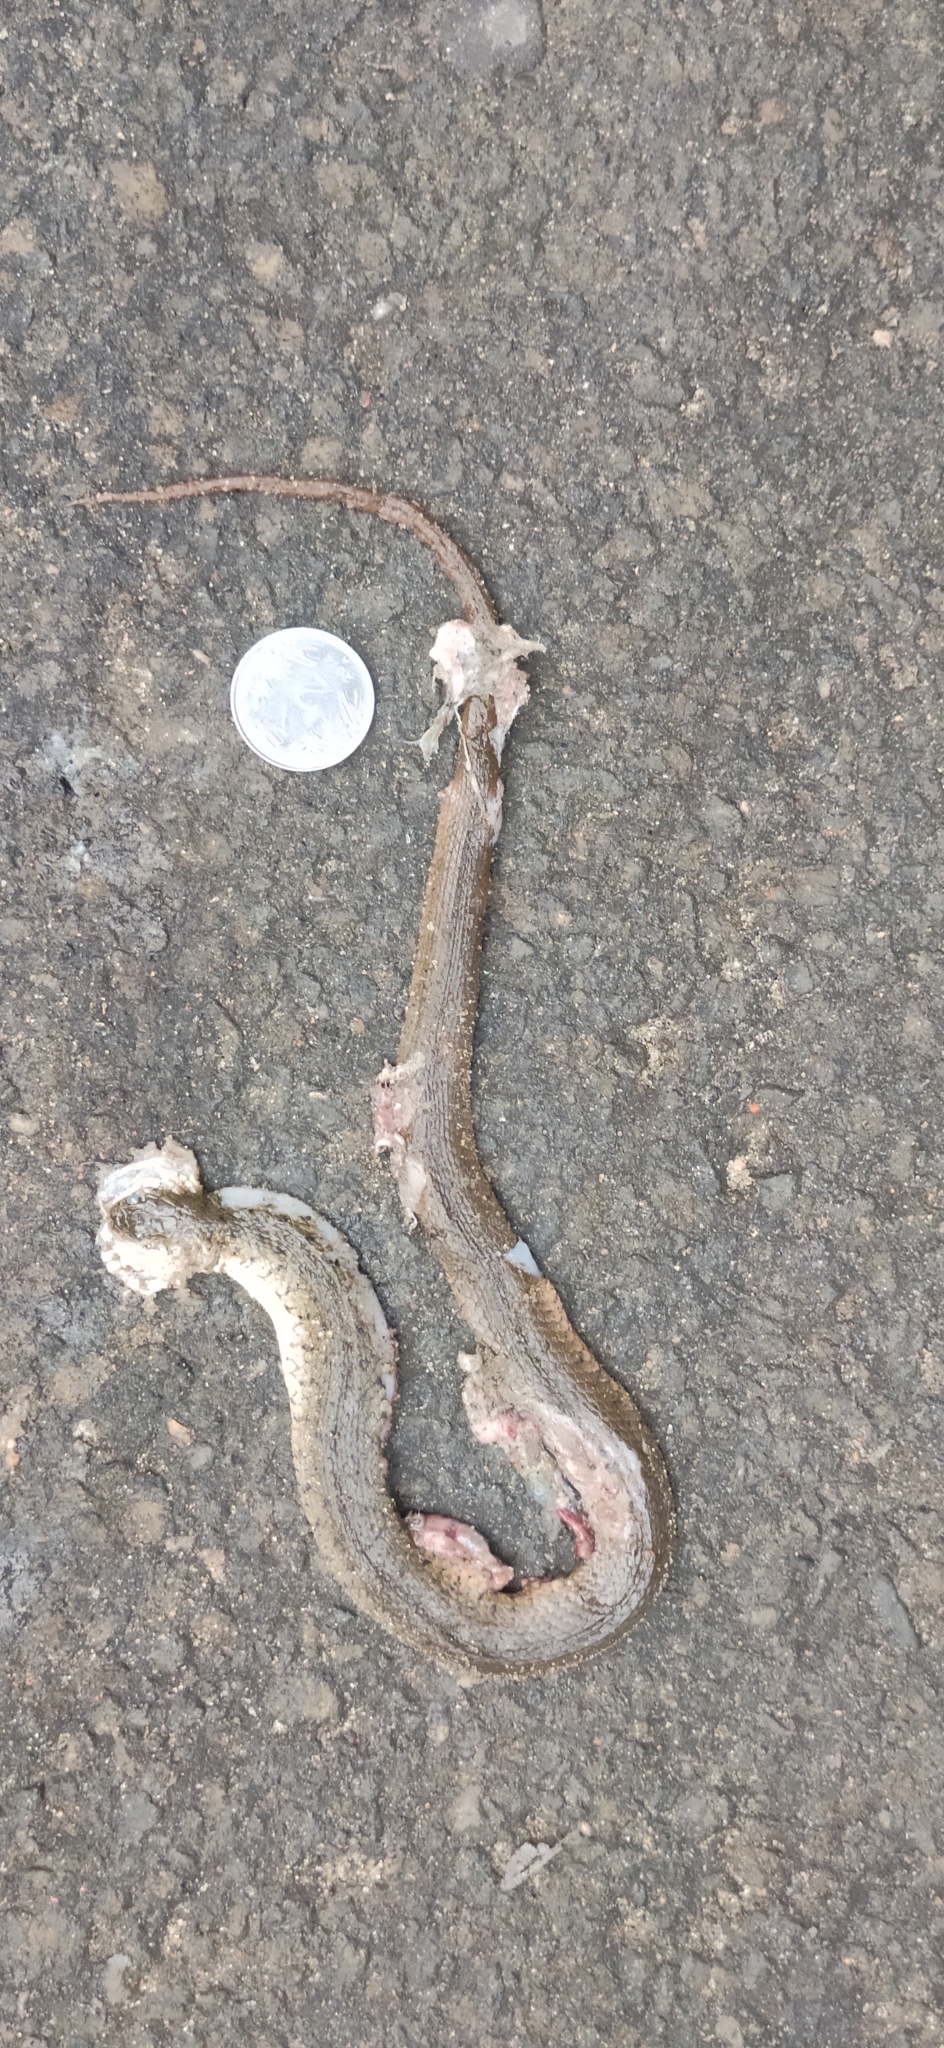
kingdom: Animalia
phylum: Chordata
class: Squamata
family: Colubridae
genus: Fowlea
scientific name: Fowlea piscator
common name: Asiatic water snake
